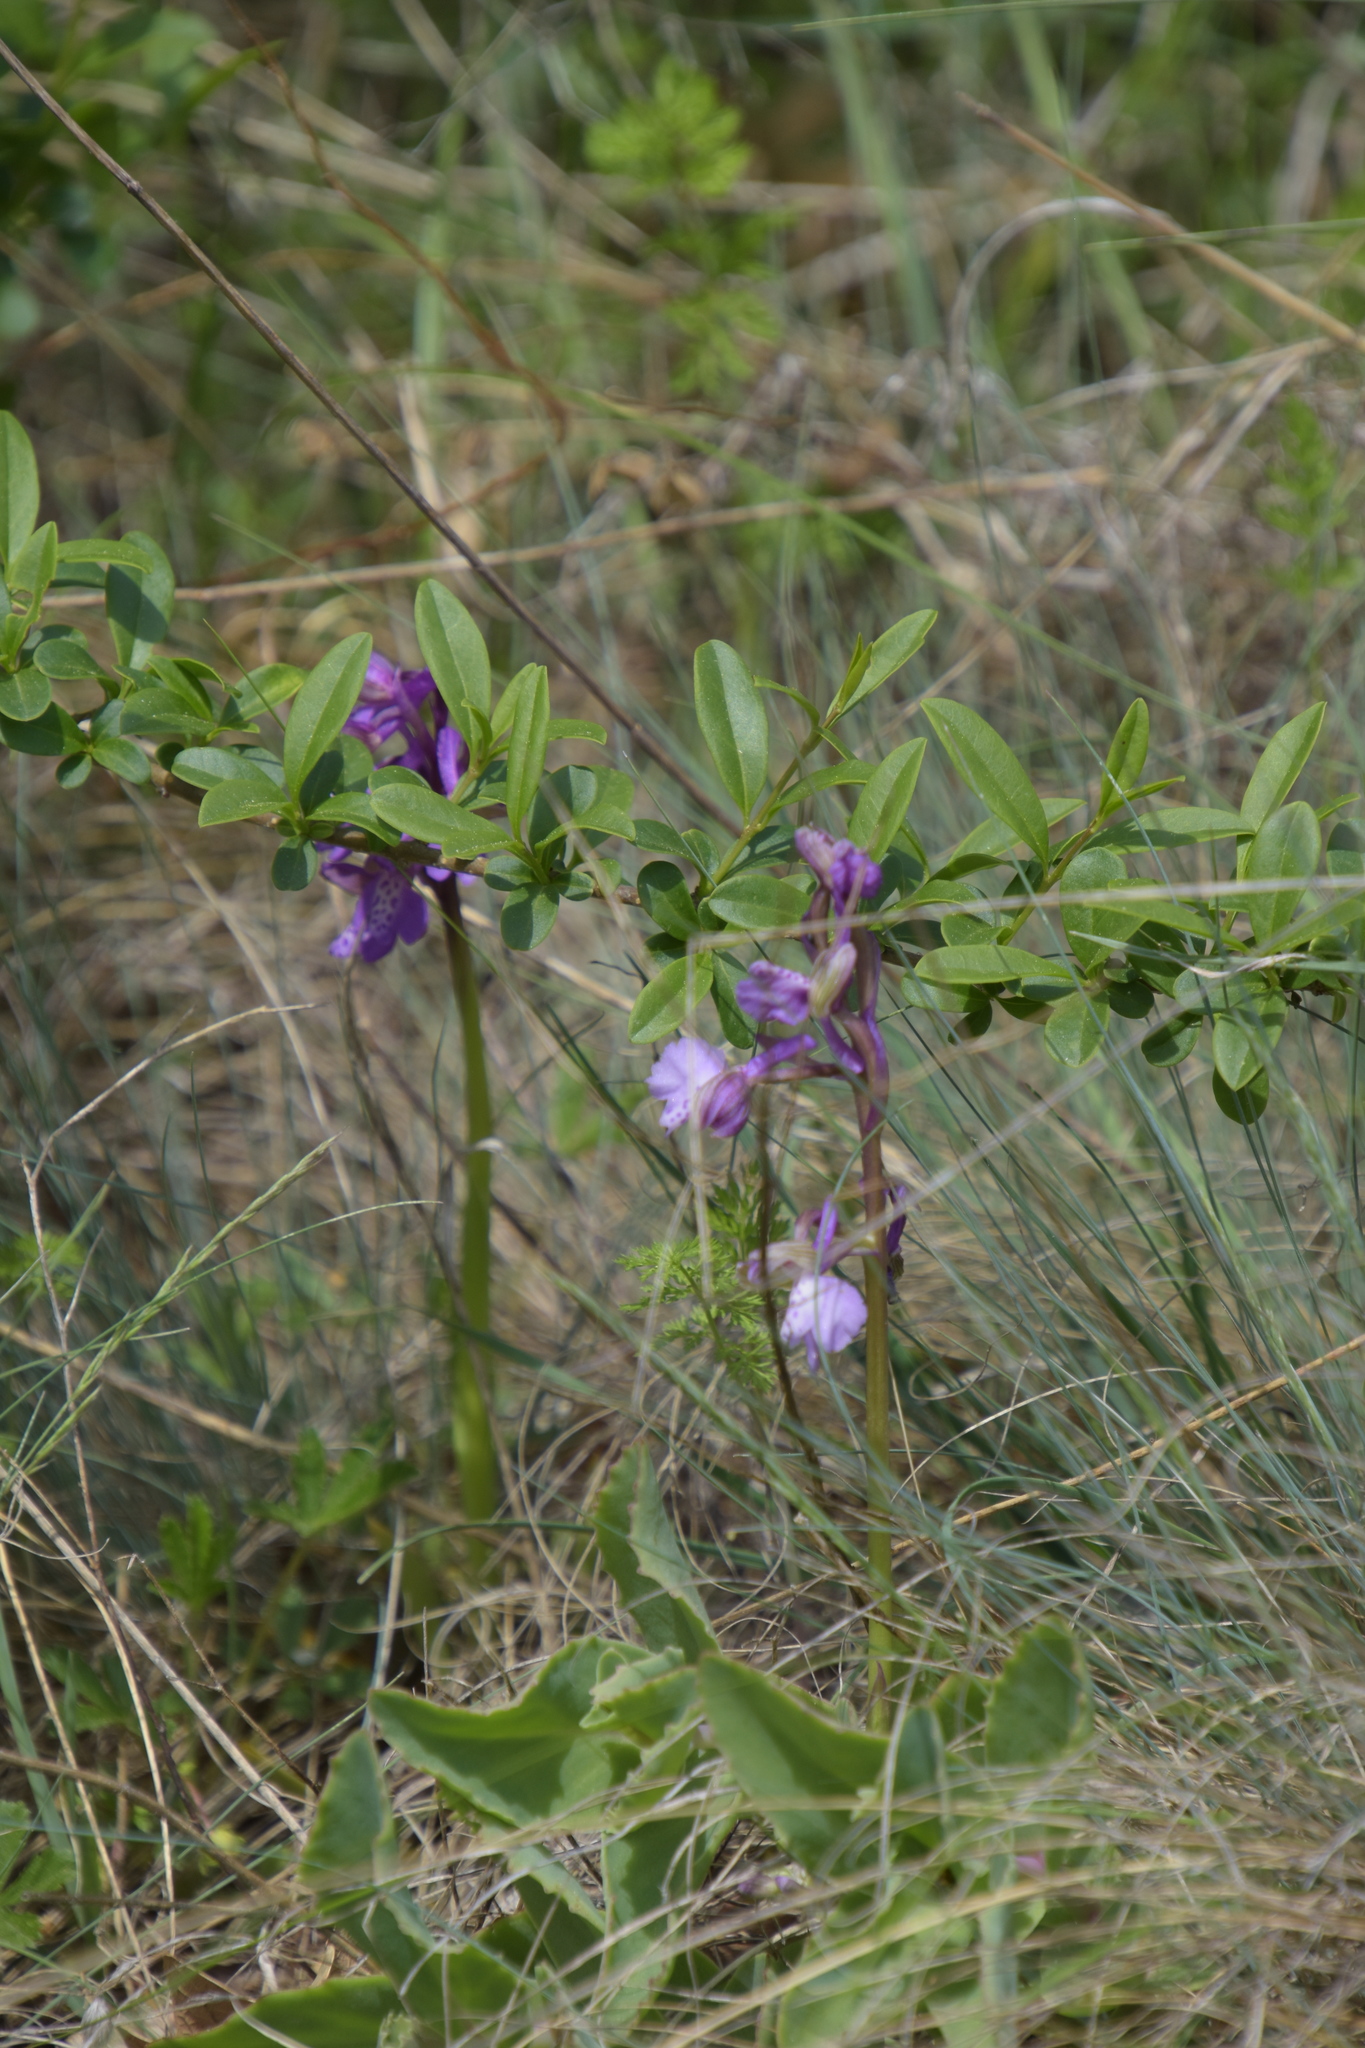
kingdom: Plantae
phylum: Tracheophyta
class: Liliopsida
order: Asparagales
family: Orchidaceae
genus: Anacamptis
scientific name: Anacamptis morio
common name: Green-winged orchid
